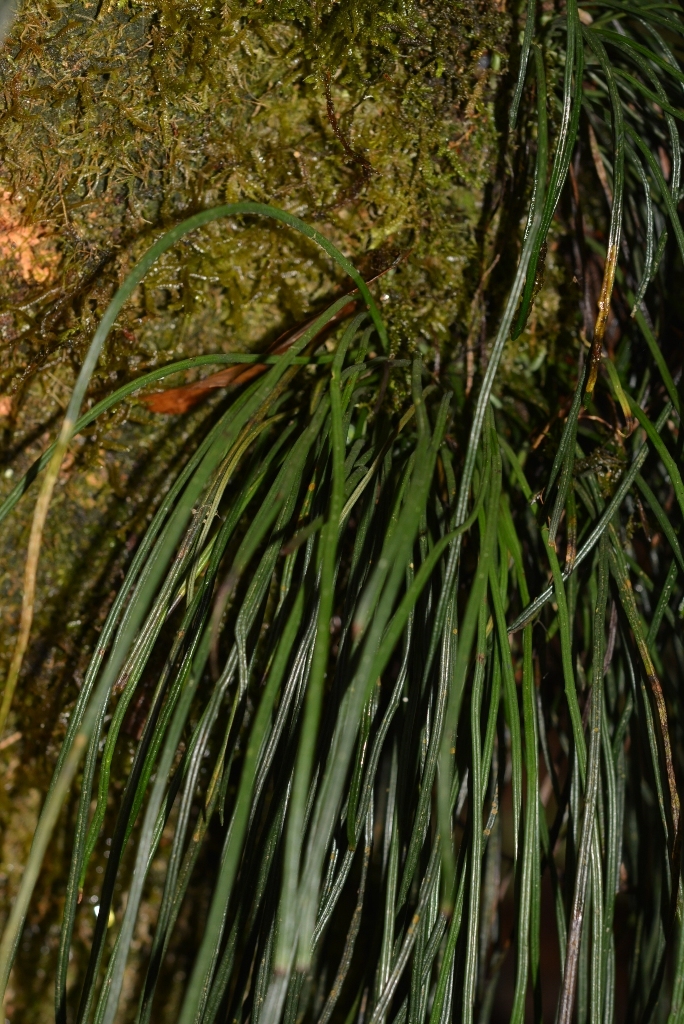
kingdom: Plantae
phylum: Tracheophyta
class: Polypodiopsida
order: Polypodiales
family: Pteridaceae
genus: Vittaria
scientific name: Vittaria graminifolia
